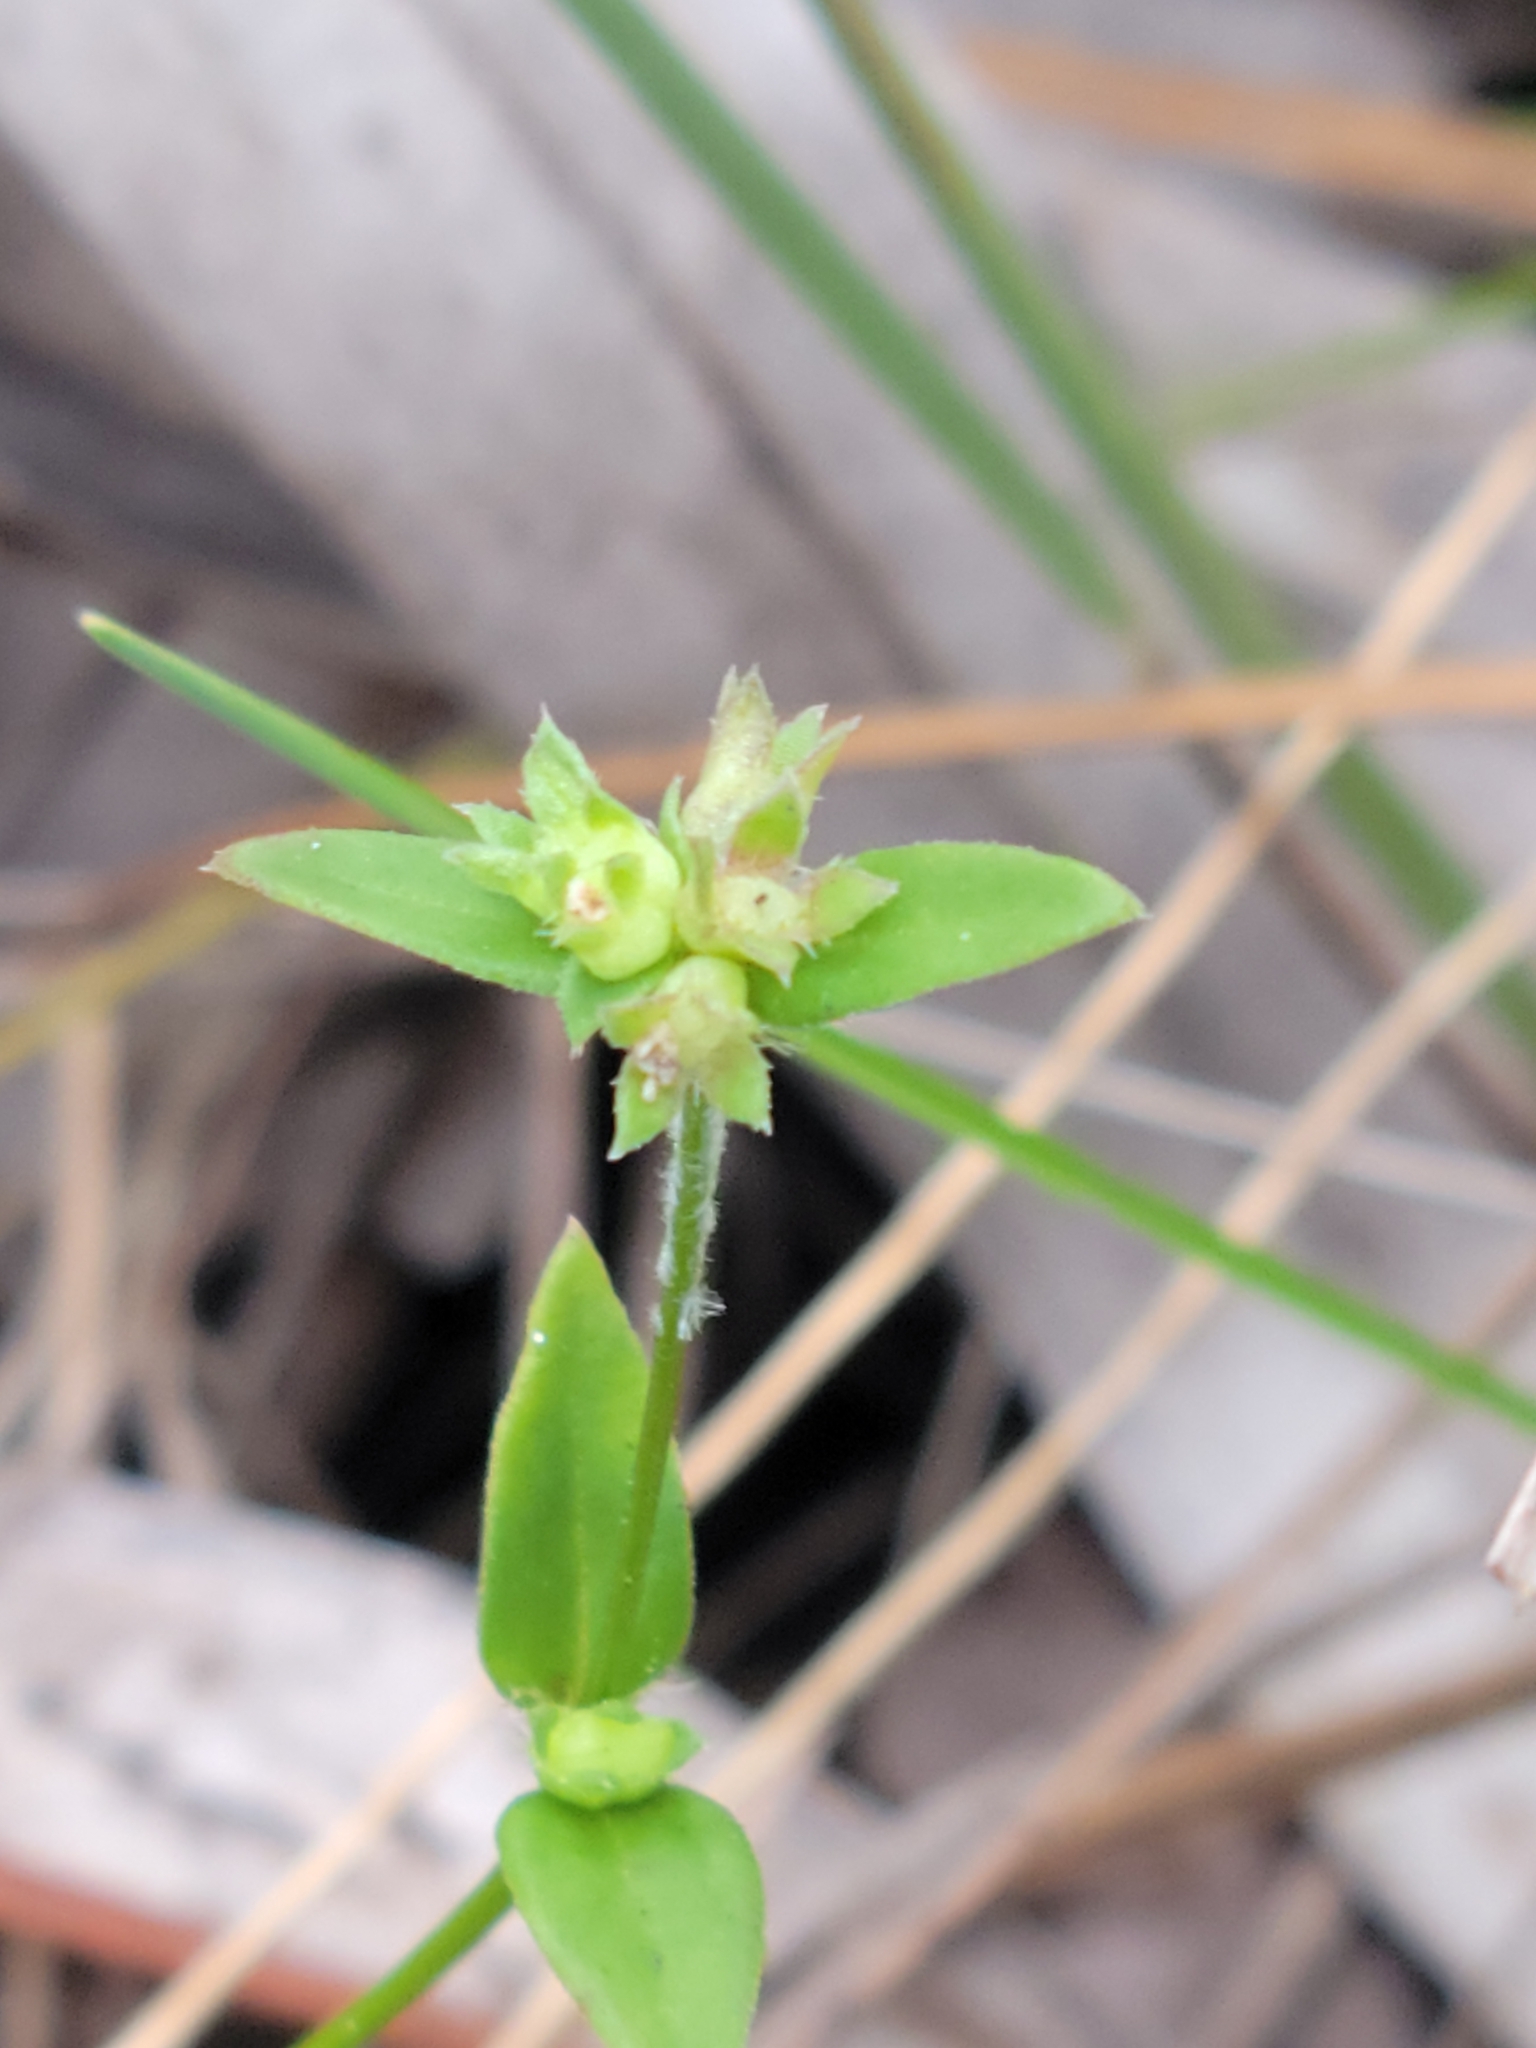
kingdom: Plantae
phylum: Tracheophyta
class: Magnoliopsida
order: Gentianales
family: Rubiaceae
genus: Edrastima
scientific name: Edrastima uniflora
